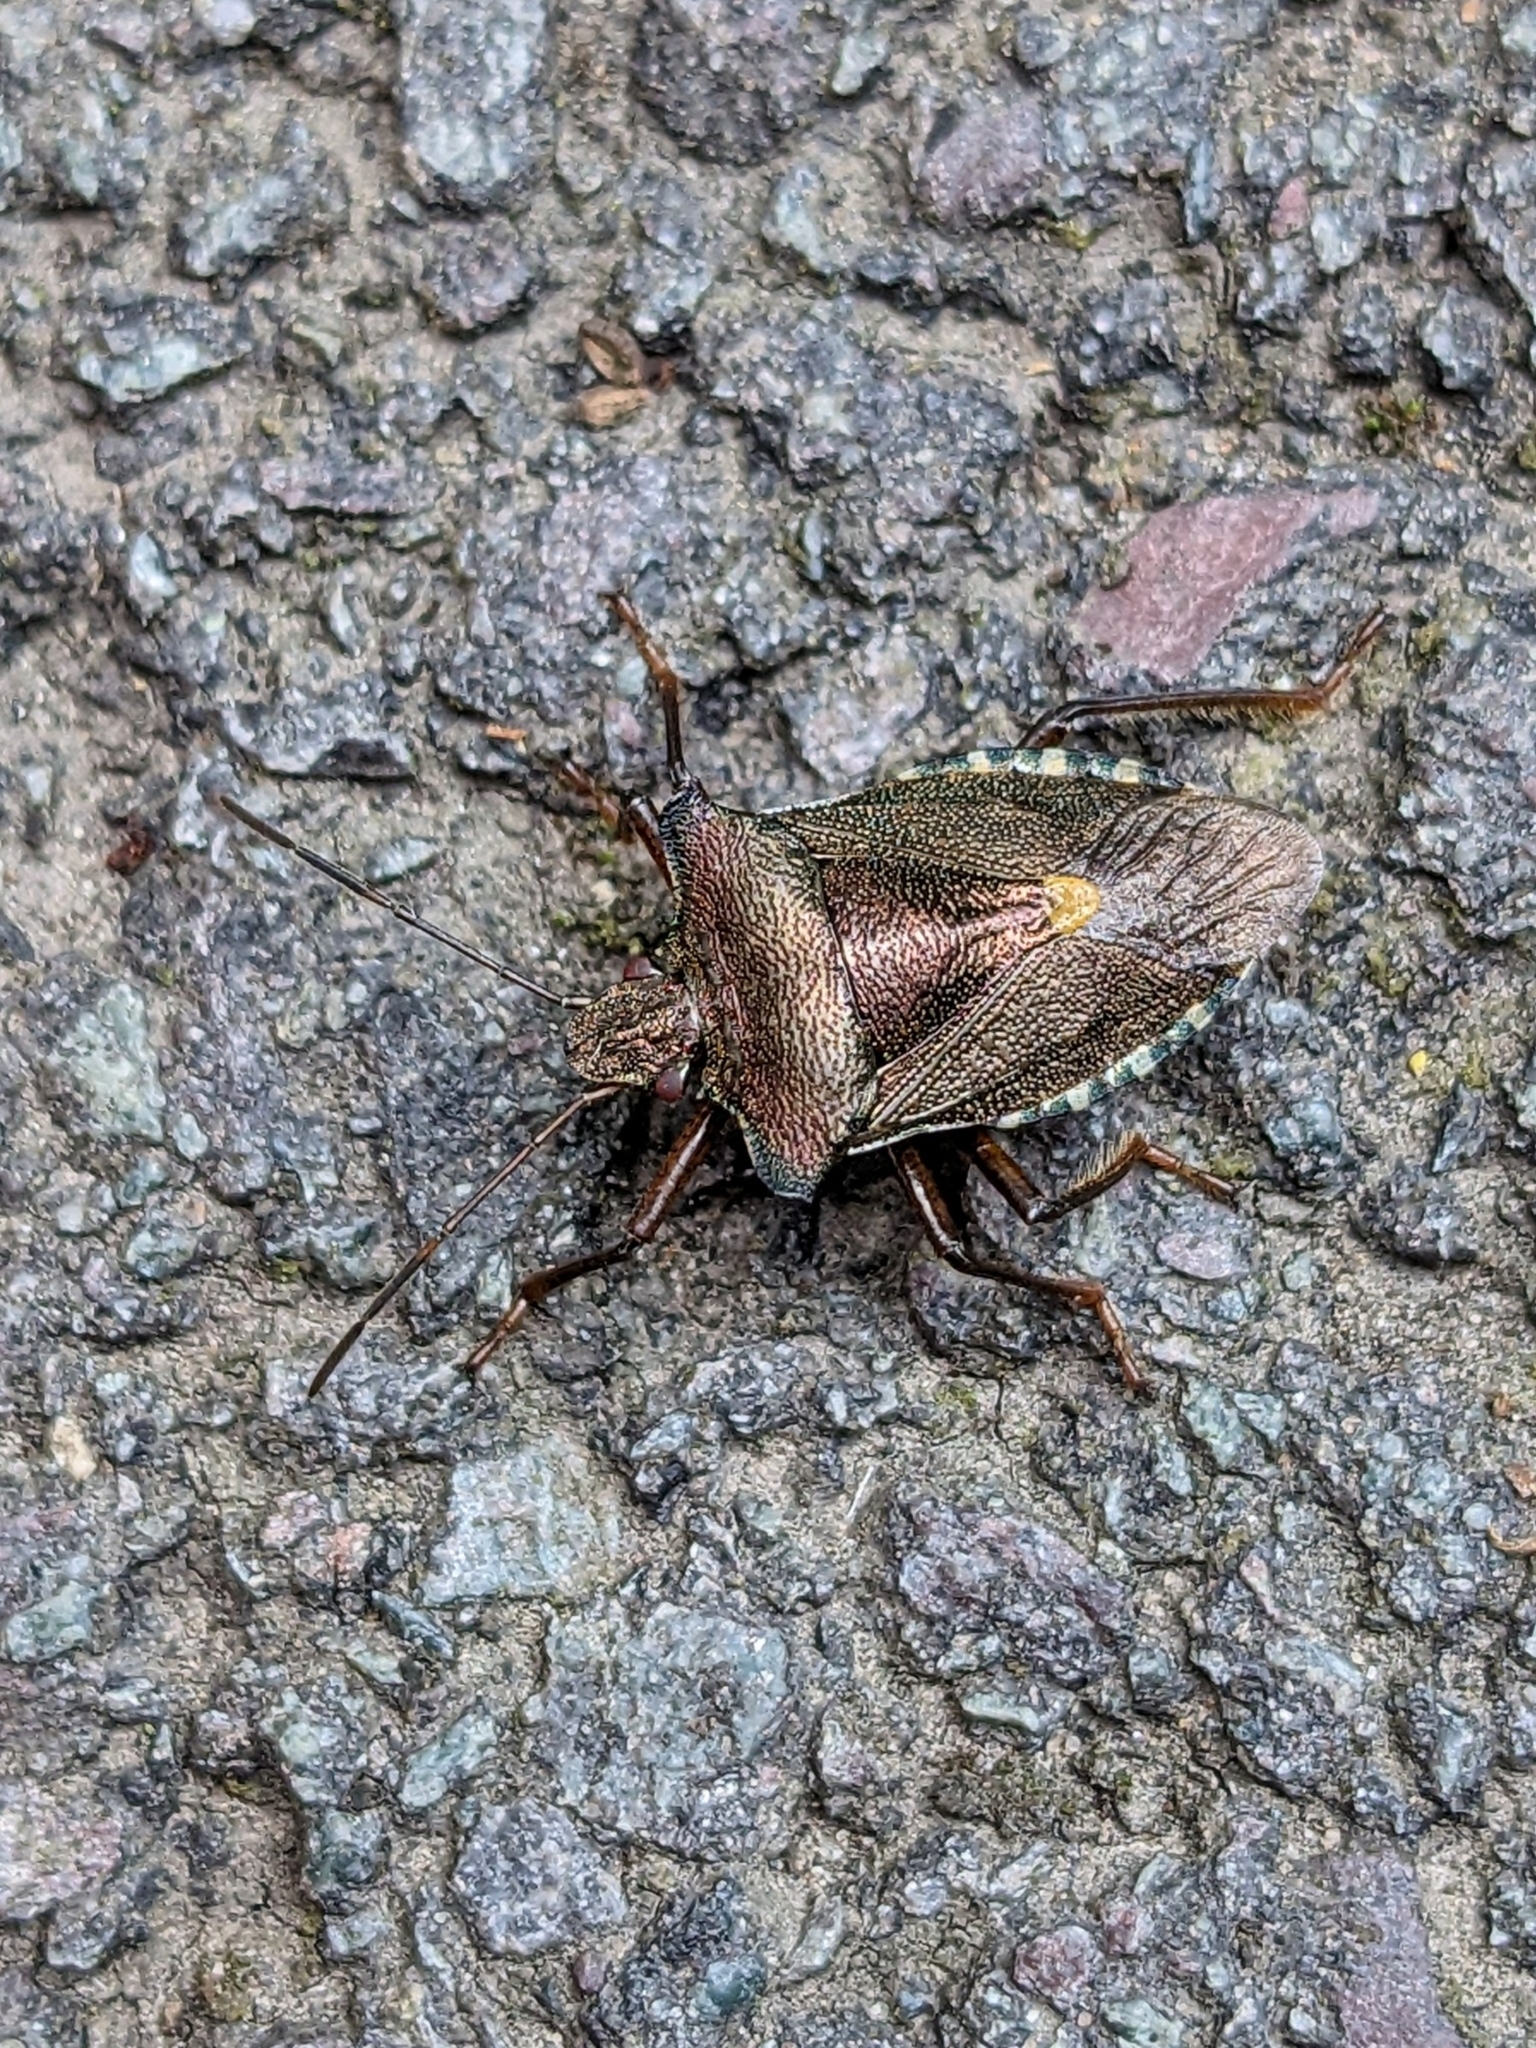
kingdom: Animalia
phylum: Arthropoda
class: Insecta
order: Hemiptera
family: Pentatomidae
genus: Pentatoma
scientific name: Pentatoma rufipes
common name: Forest bug
